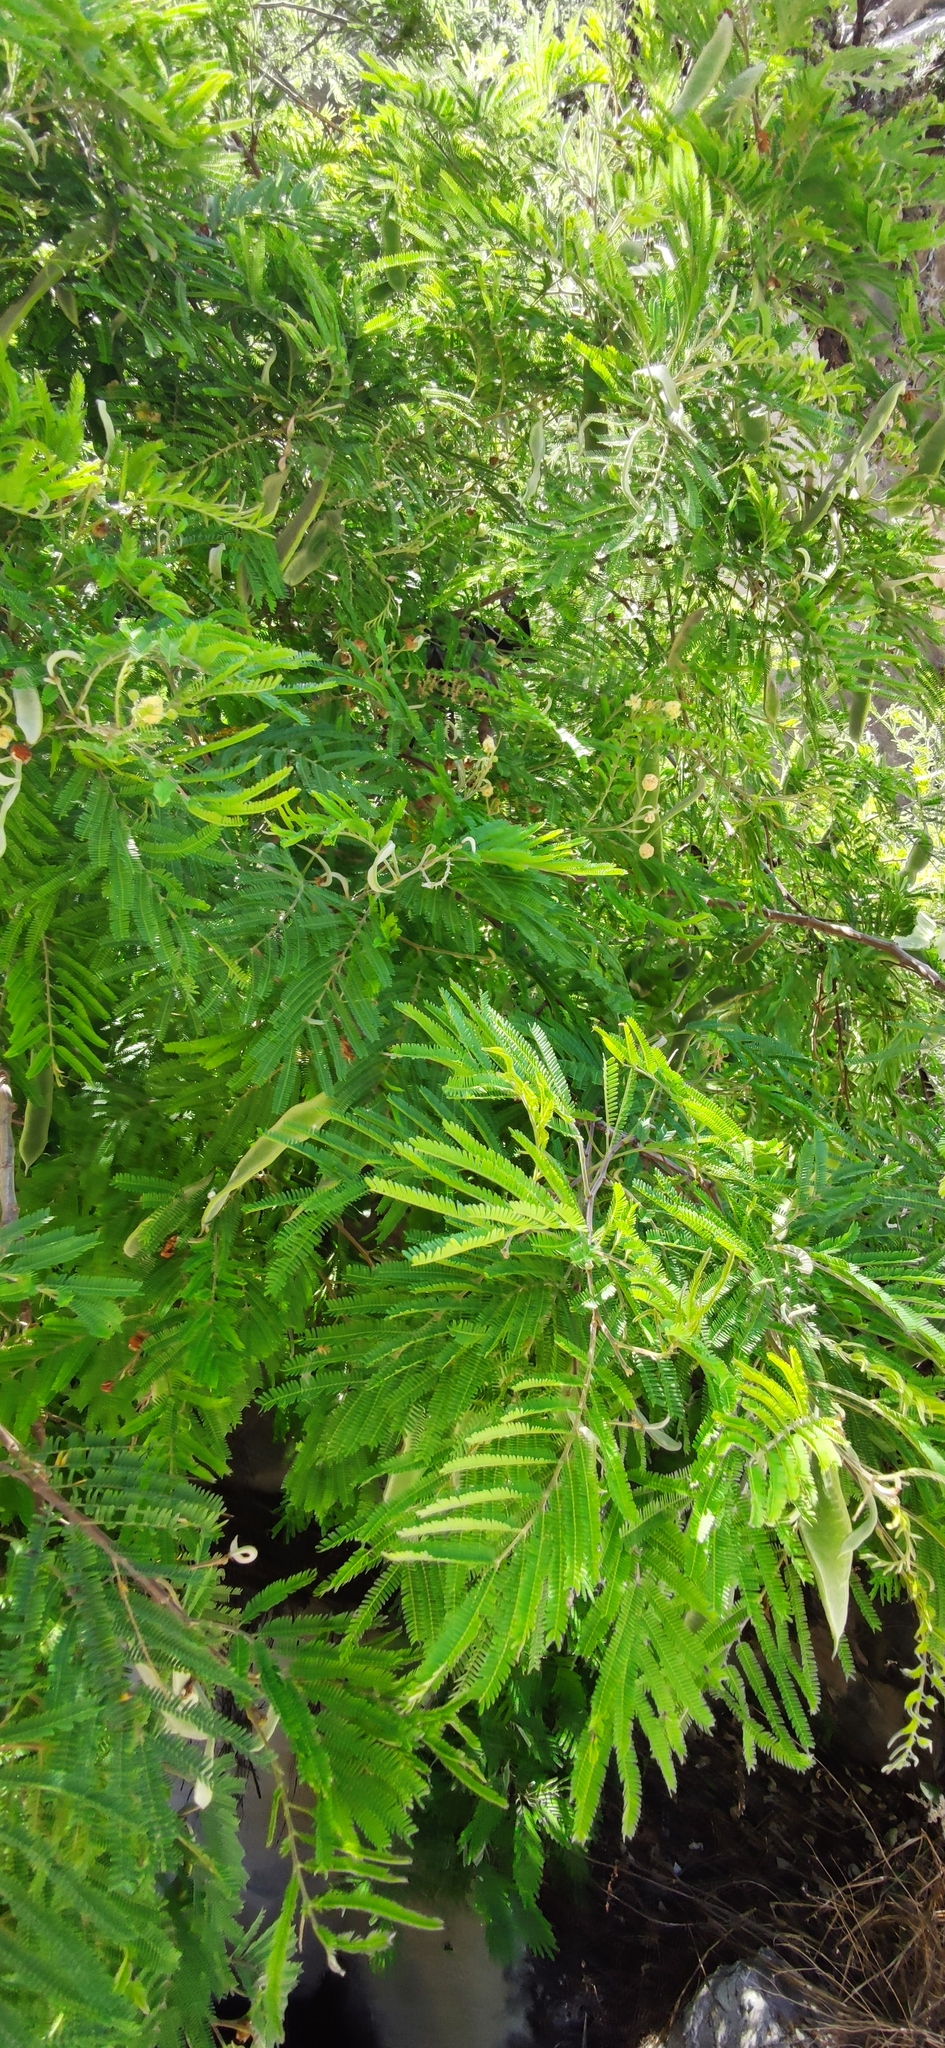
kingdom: Plantae
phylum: Tracheophyta
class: Magnoliopsida
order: Fabales
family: Fabaceae
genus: Senegalia
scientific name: Senegalia berlandieri
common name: Berlandier acacia
